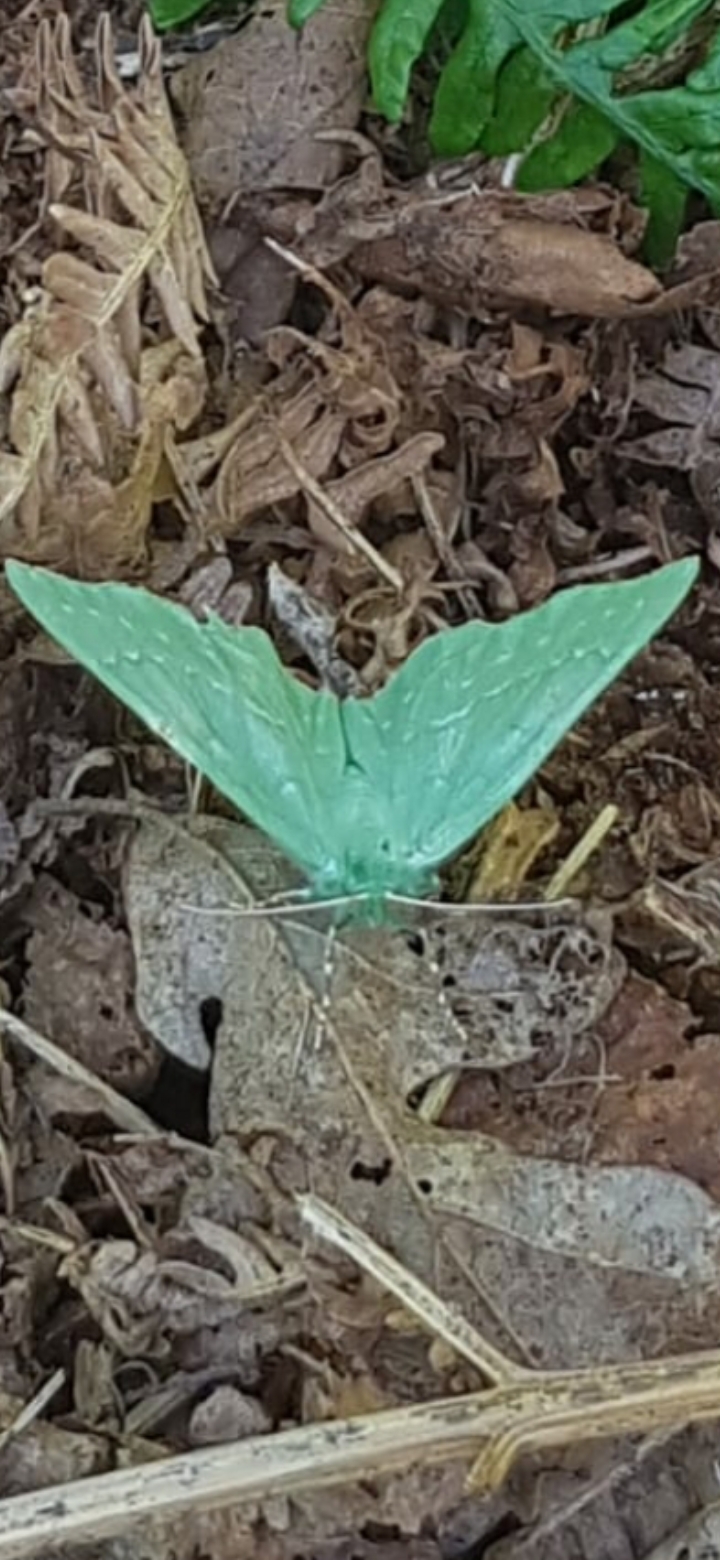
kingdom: Animalia
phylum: Arthropoda
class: Insecta
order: Lepidoptera
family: Geometridae
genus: Geometra
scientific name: Geometra papilionaria
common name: Large emerald
